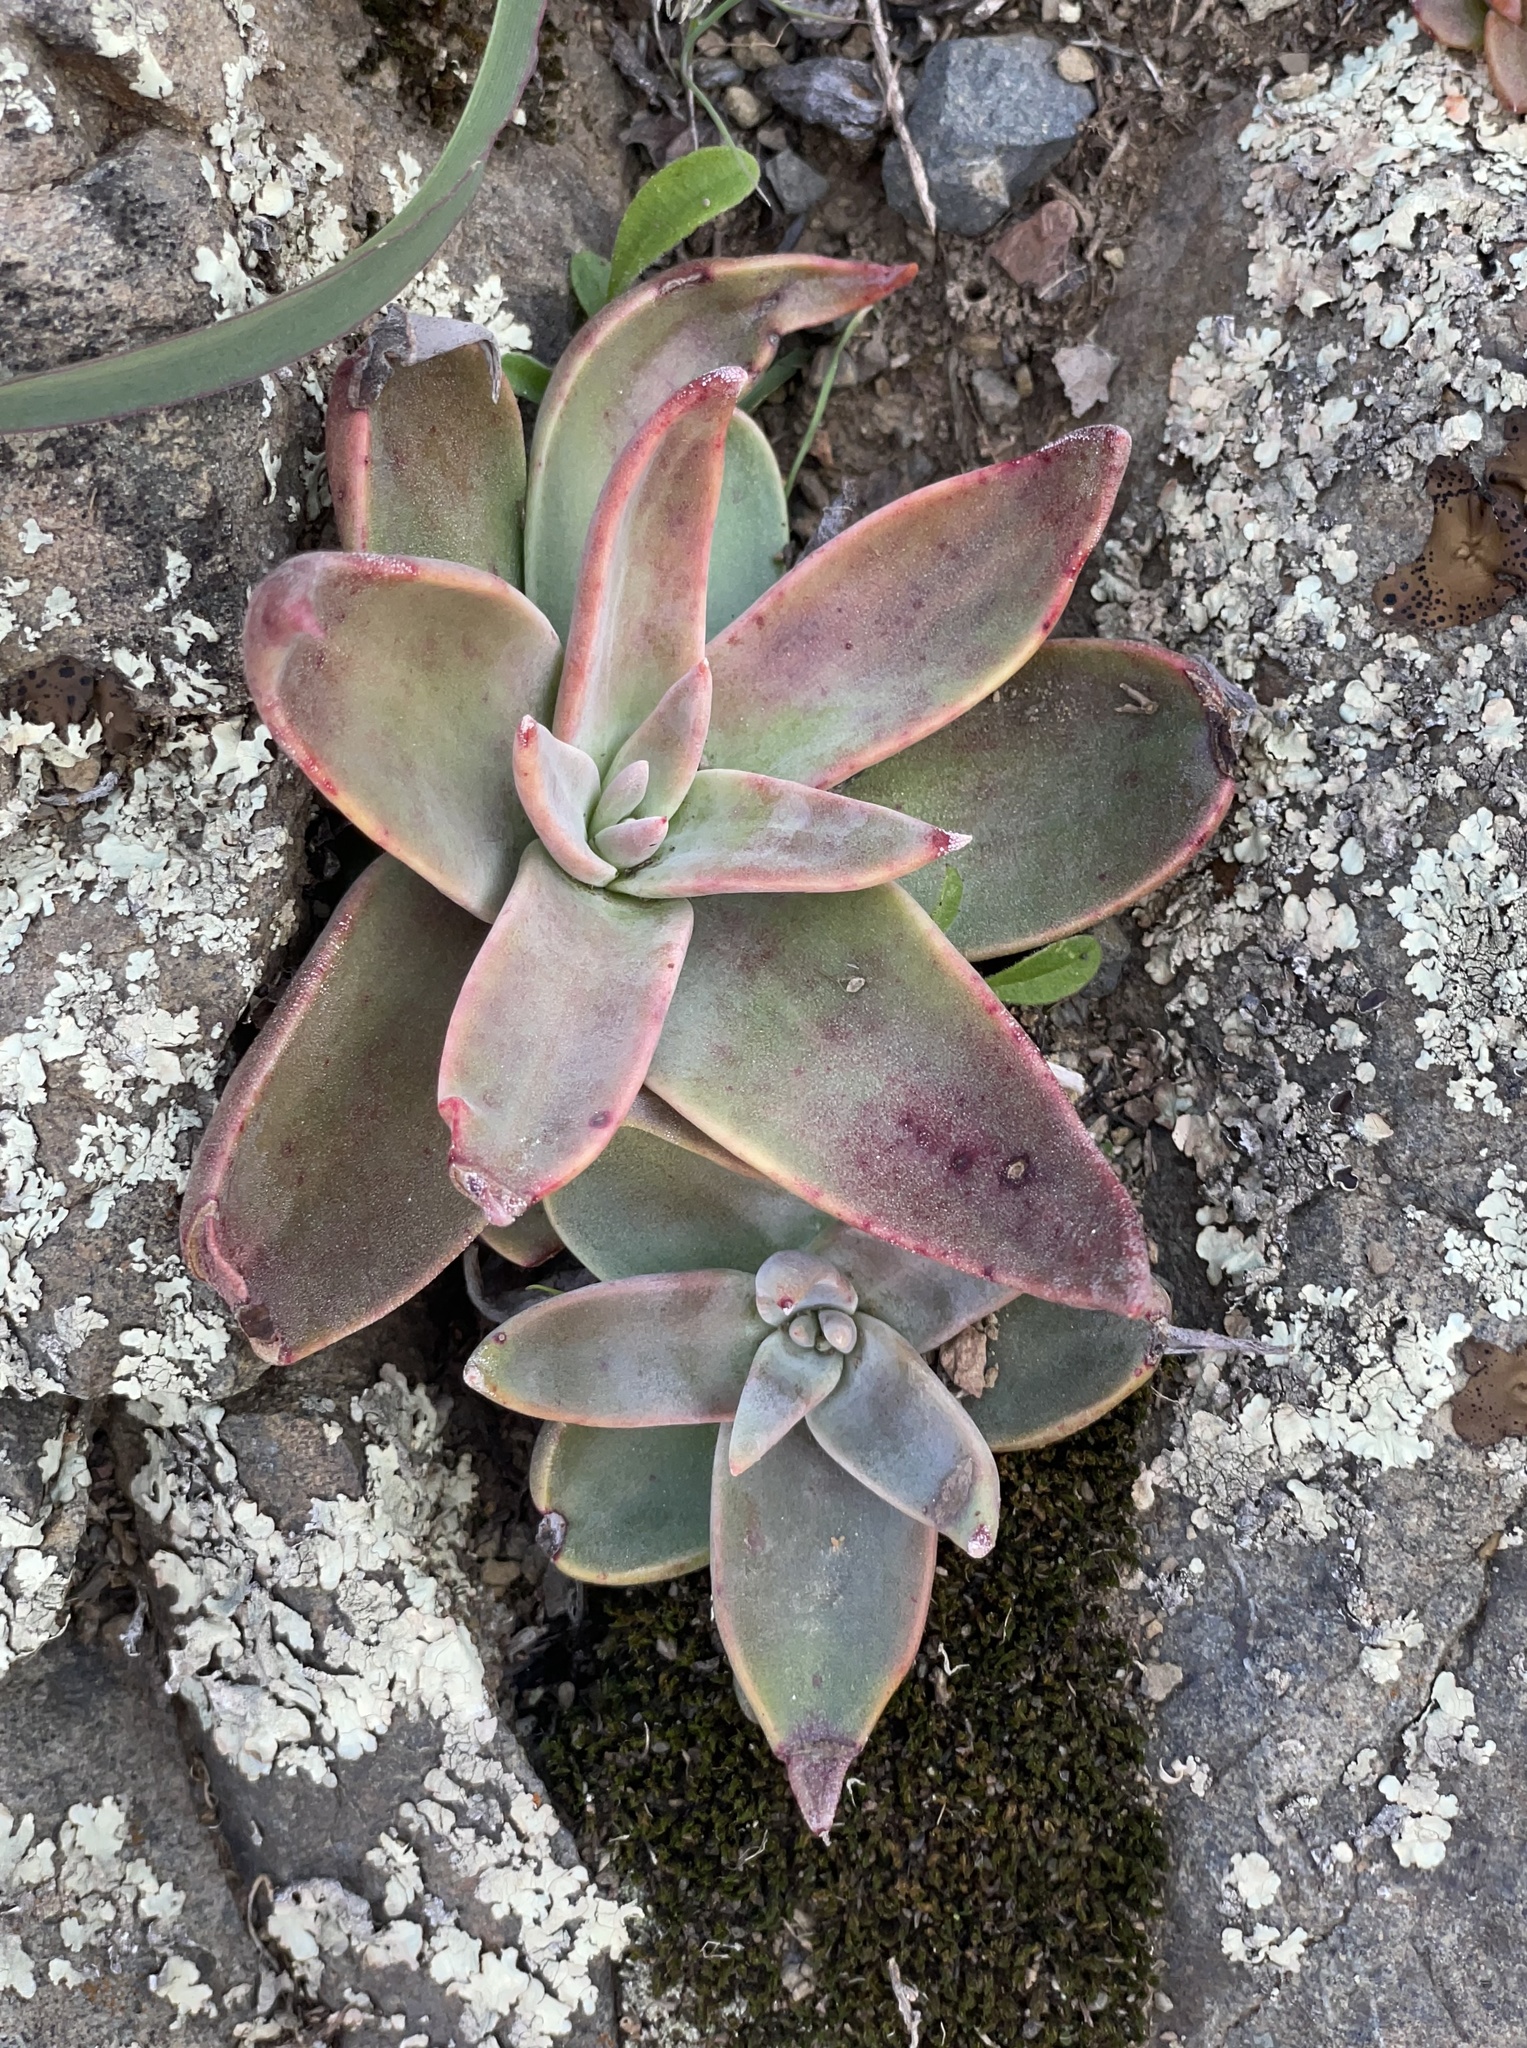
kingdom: Plantae
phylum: Tracheophyta
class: Magnoliopsida
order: Saxifragales
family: Crassulaceae
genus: Dudleya
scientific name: Dudleya cymosa
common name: Canyon dudleya
